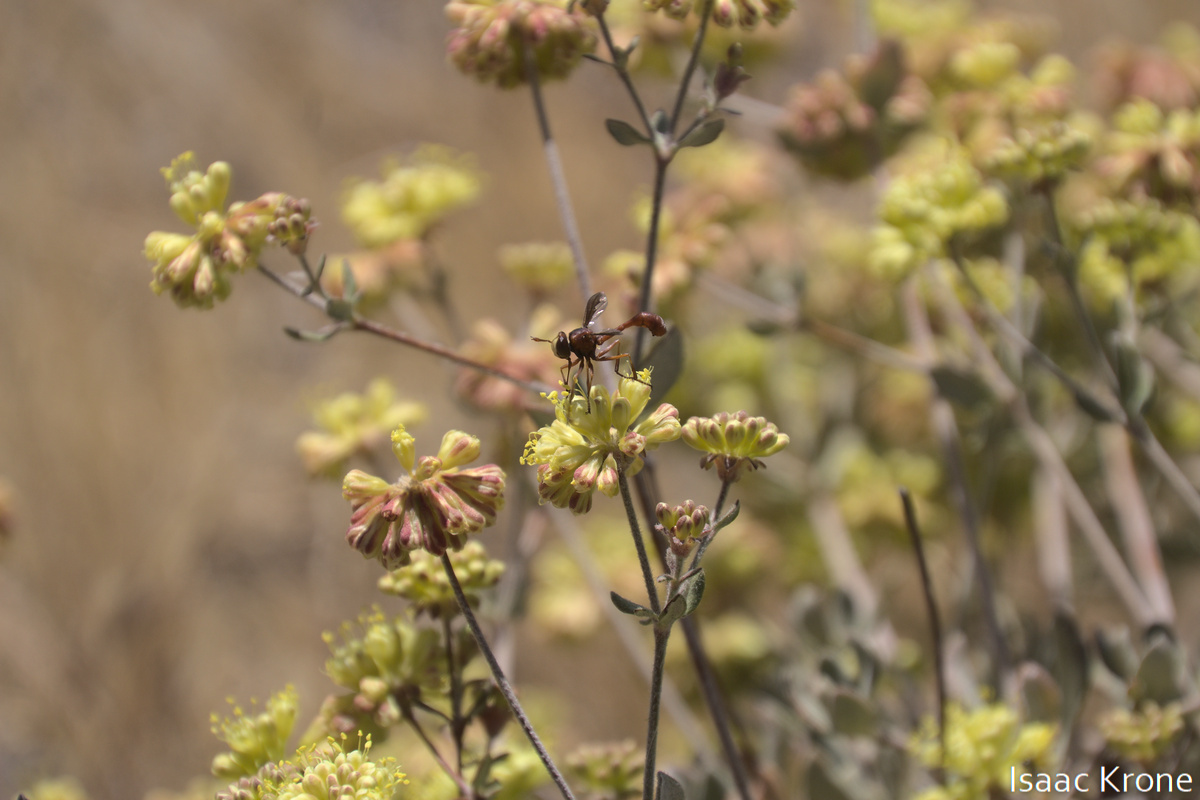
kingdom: Animalia
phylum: Arthropoda
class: Insecta
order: Diptera
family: Conopidae
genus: Physocephala
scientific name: Physocephala burgessi
